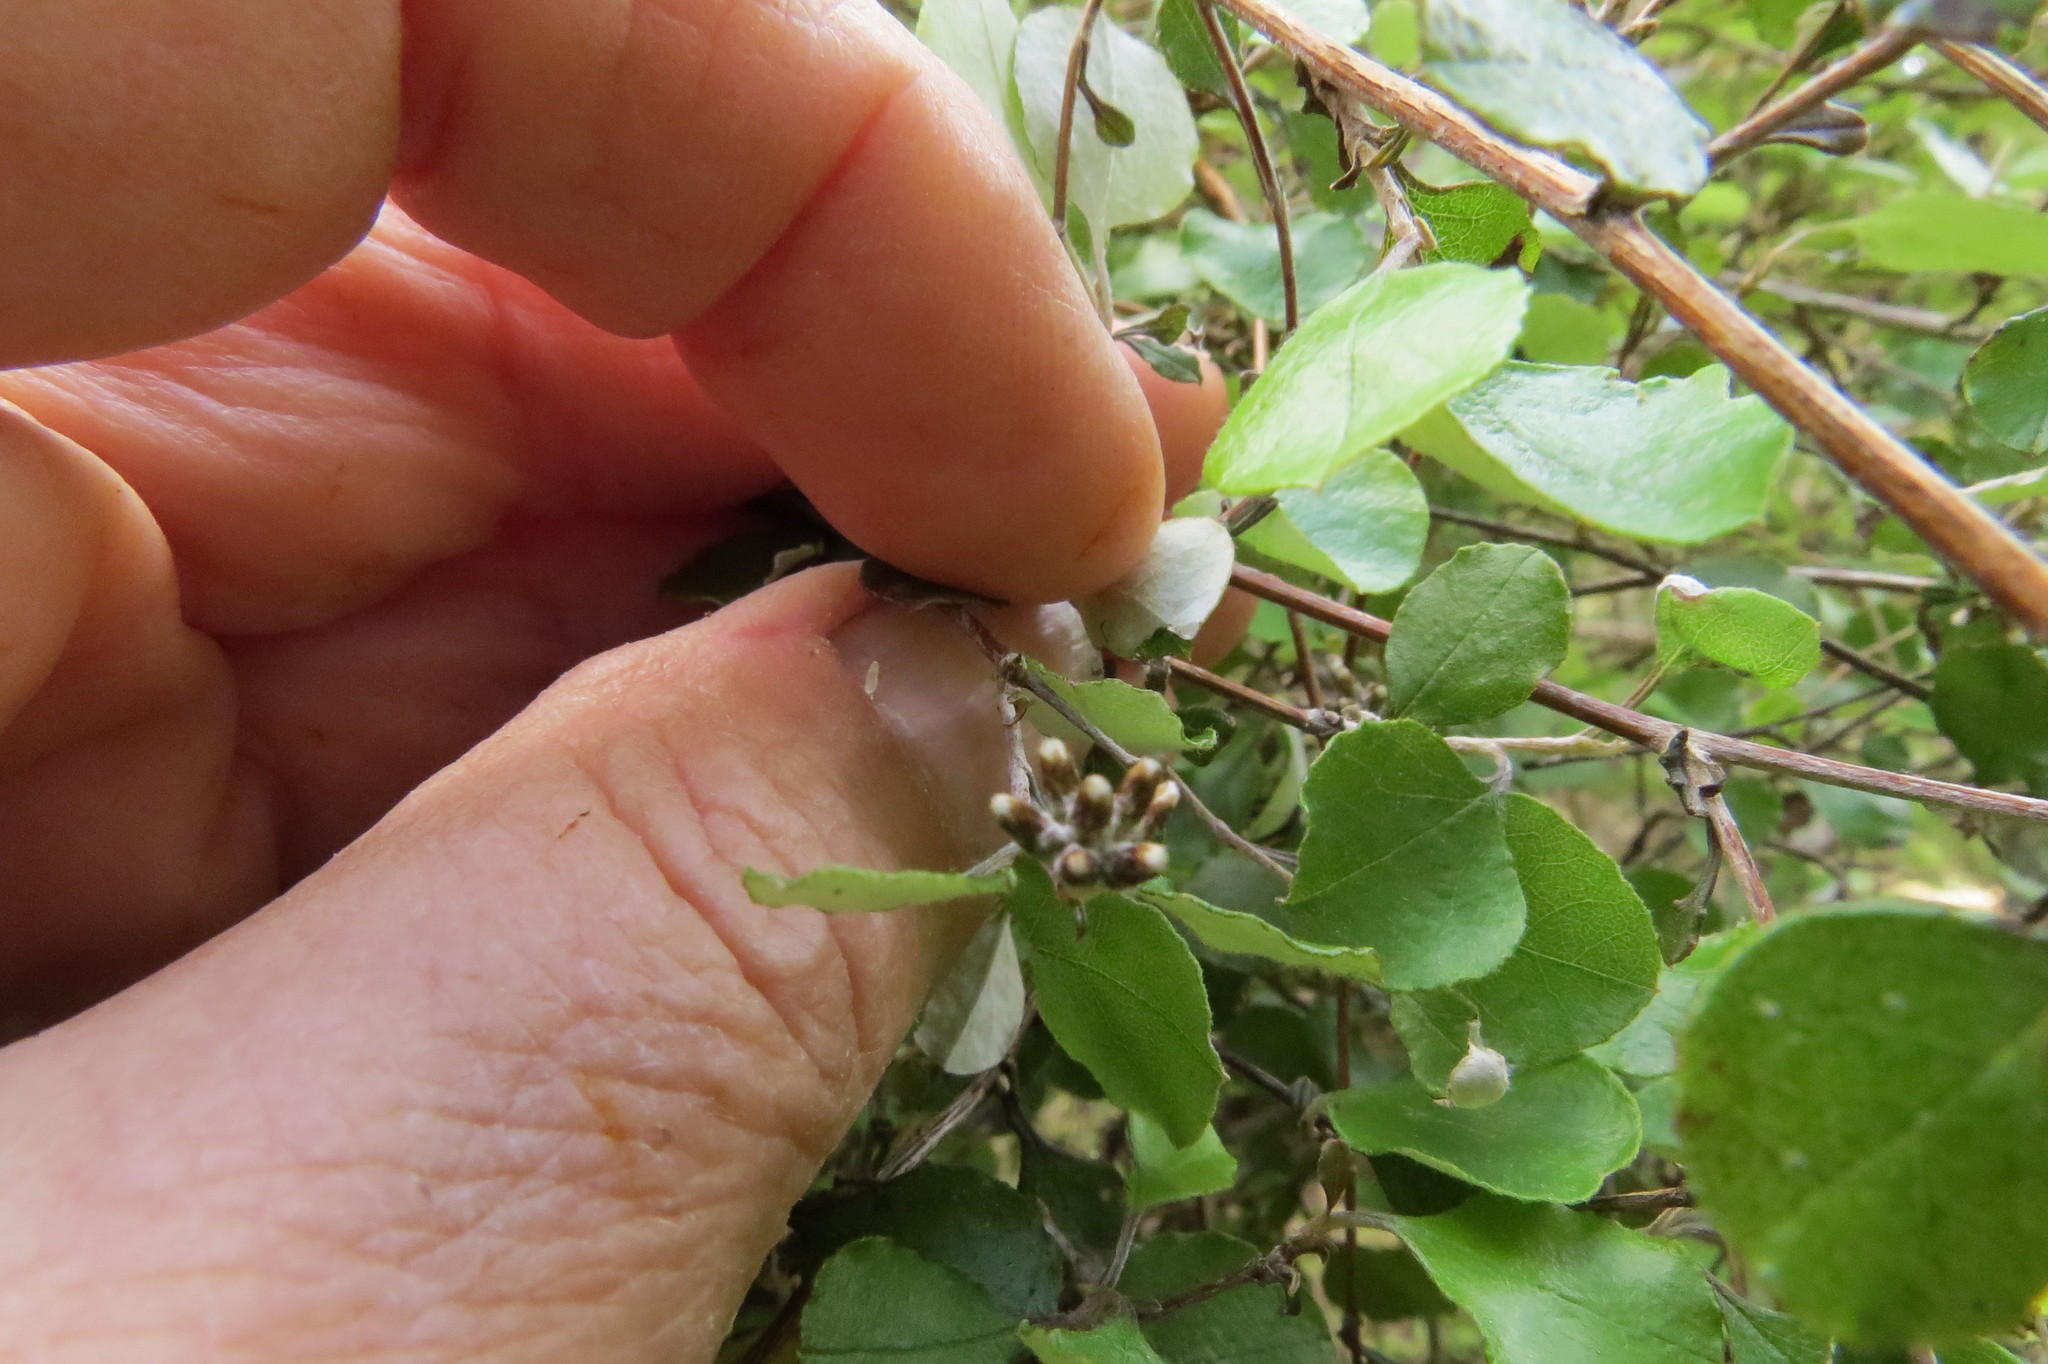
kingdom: Plantae
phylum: Tracheophyta
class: Magnoliopsida
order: Asterales
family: Asteraceae
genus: Ozothamnus
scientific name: Ozothamnus glomeratus
